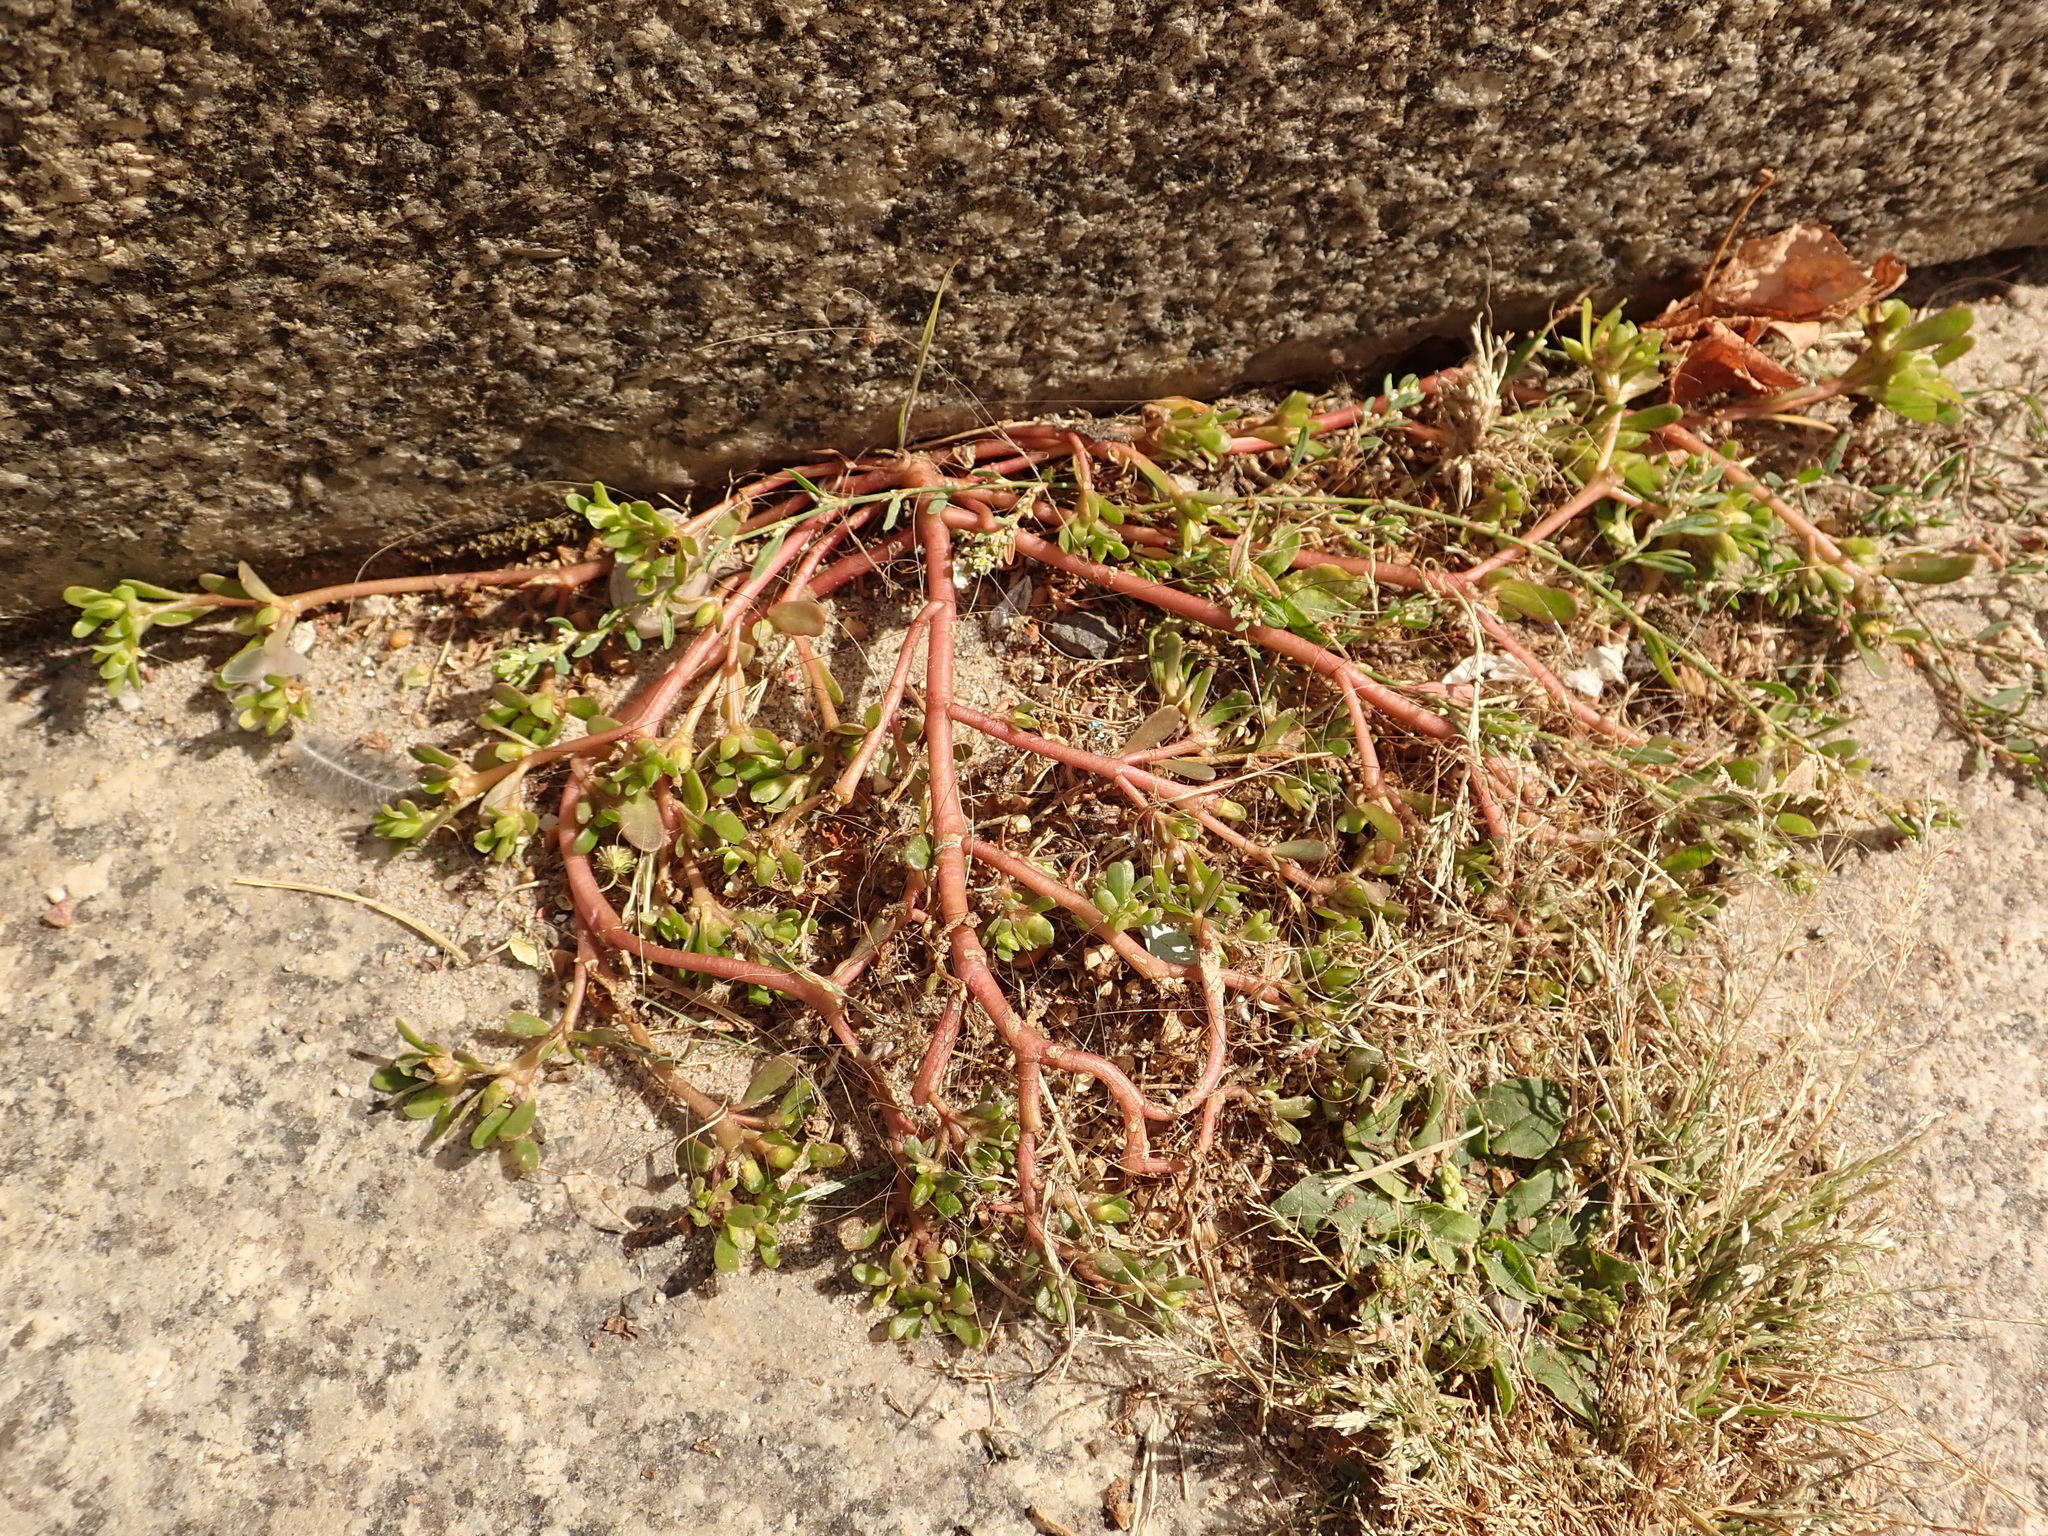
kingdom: Plantae
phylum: Tracheophyta
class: Magnoliopsida
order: Caryophyllales
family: Portulacaceae
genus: Portulaca
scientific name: Portulaca oleracea
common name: Common purslane
